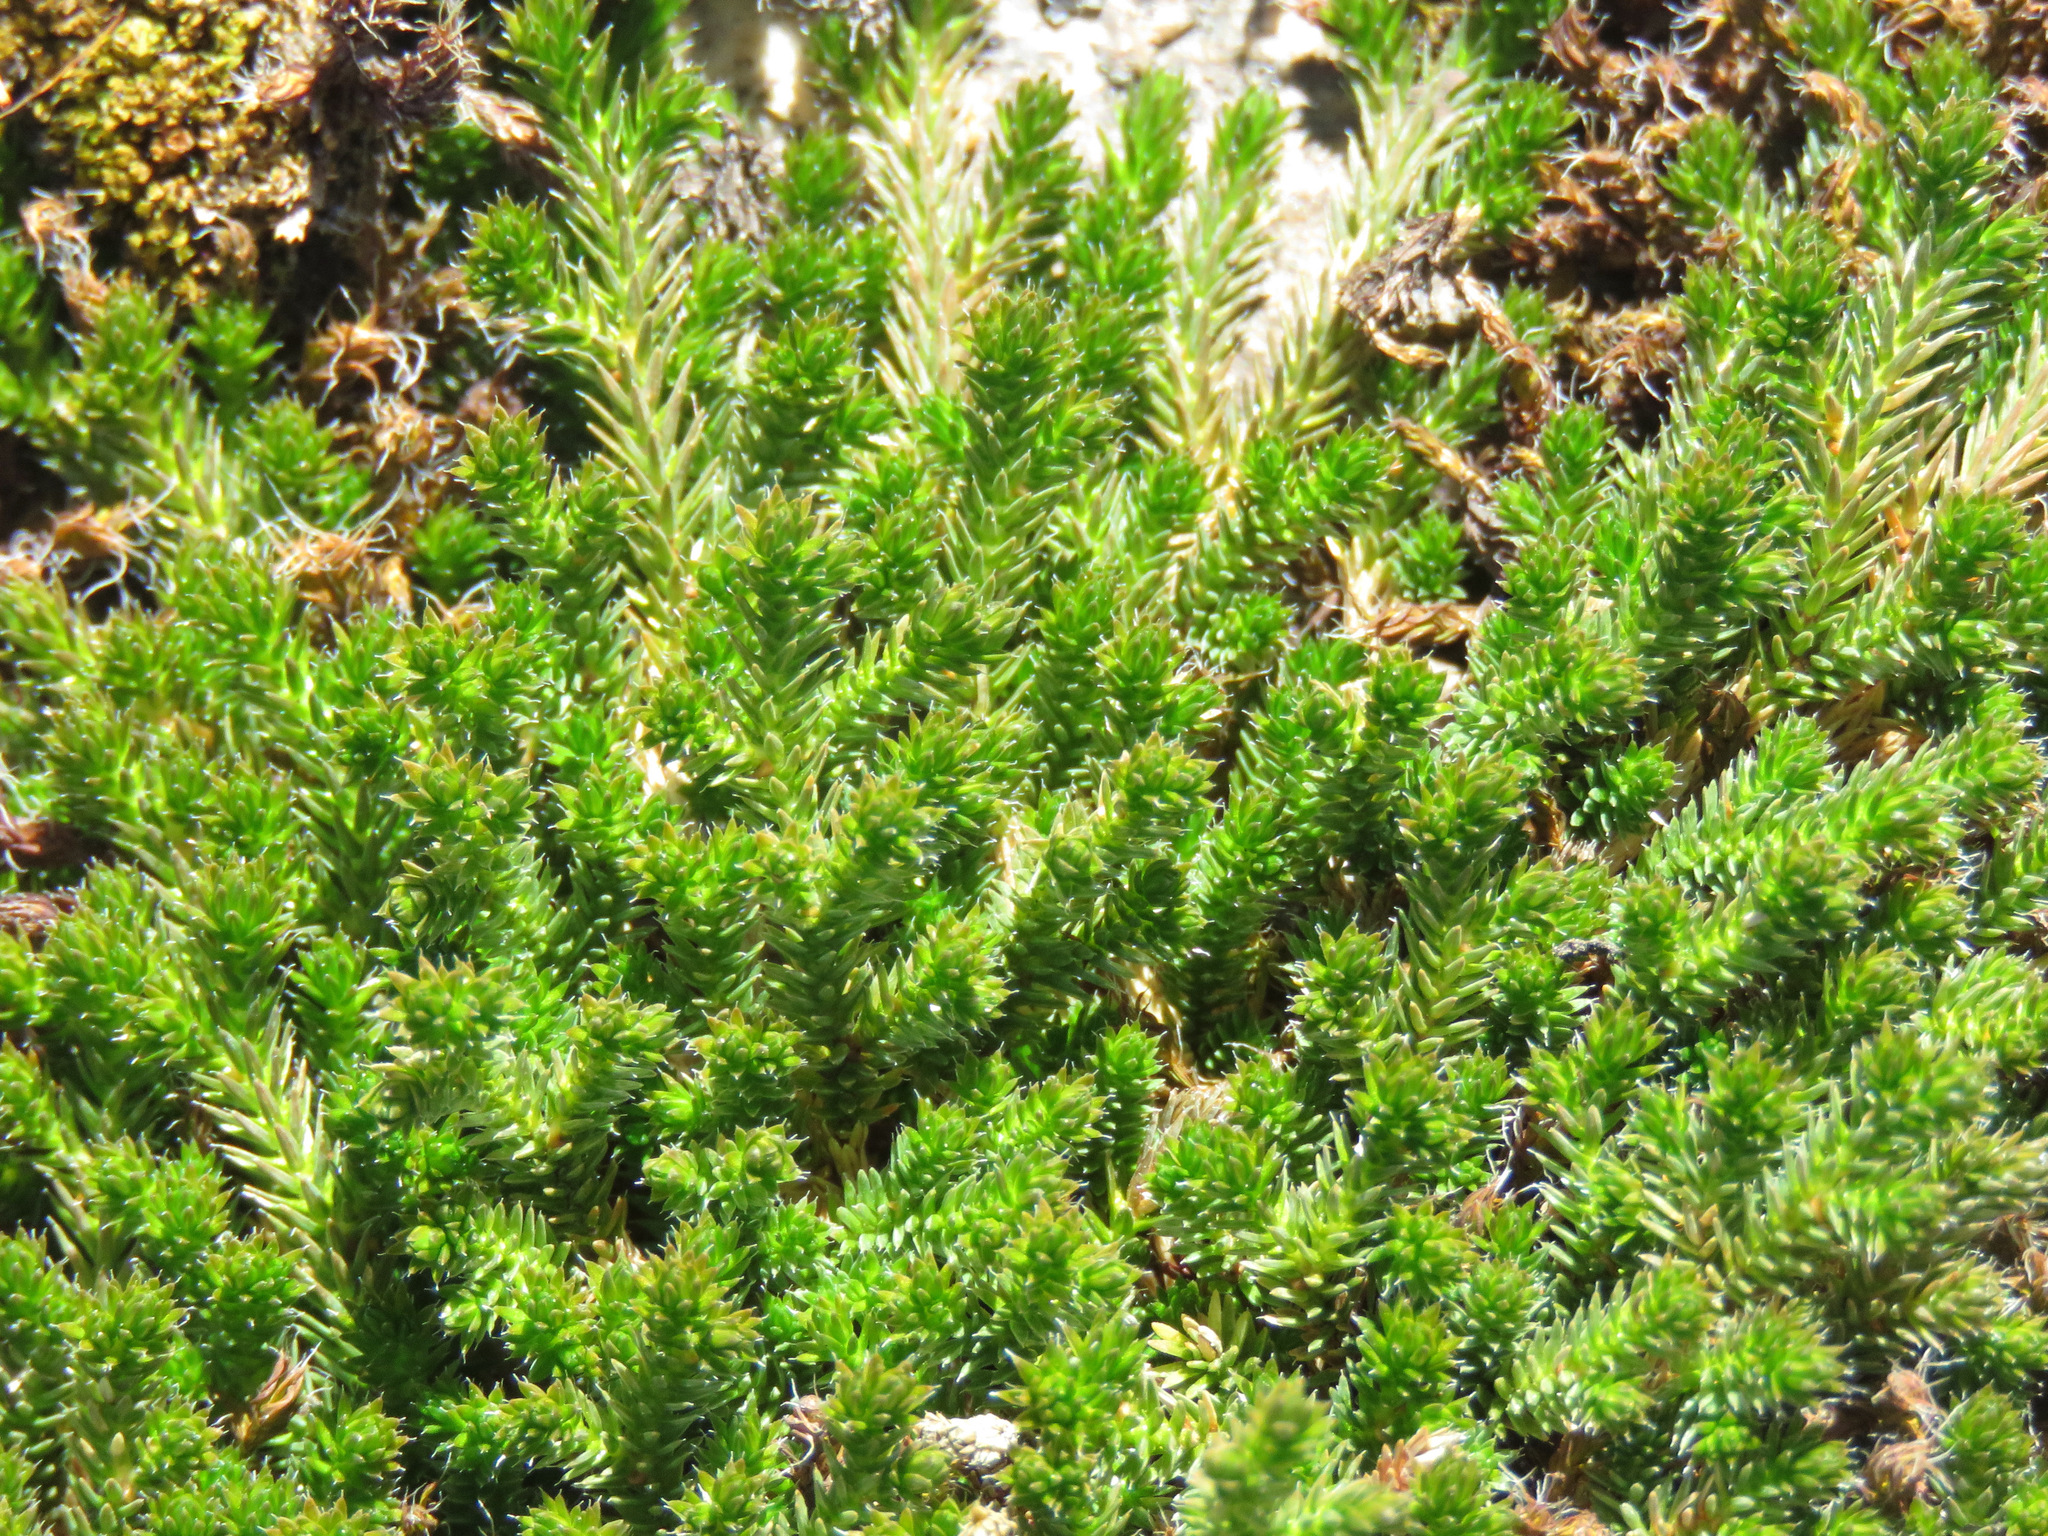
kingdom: Plantae
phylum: Tracheophyta
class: Lycopodiopsida
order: Selaginellales
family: Selaginellaceae
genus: Selaginella
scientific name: Selaginella wallacei
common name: Wallace's selaginella
